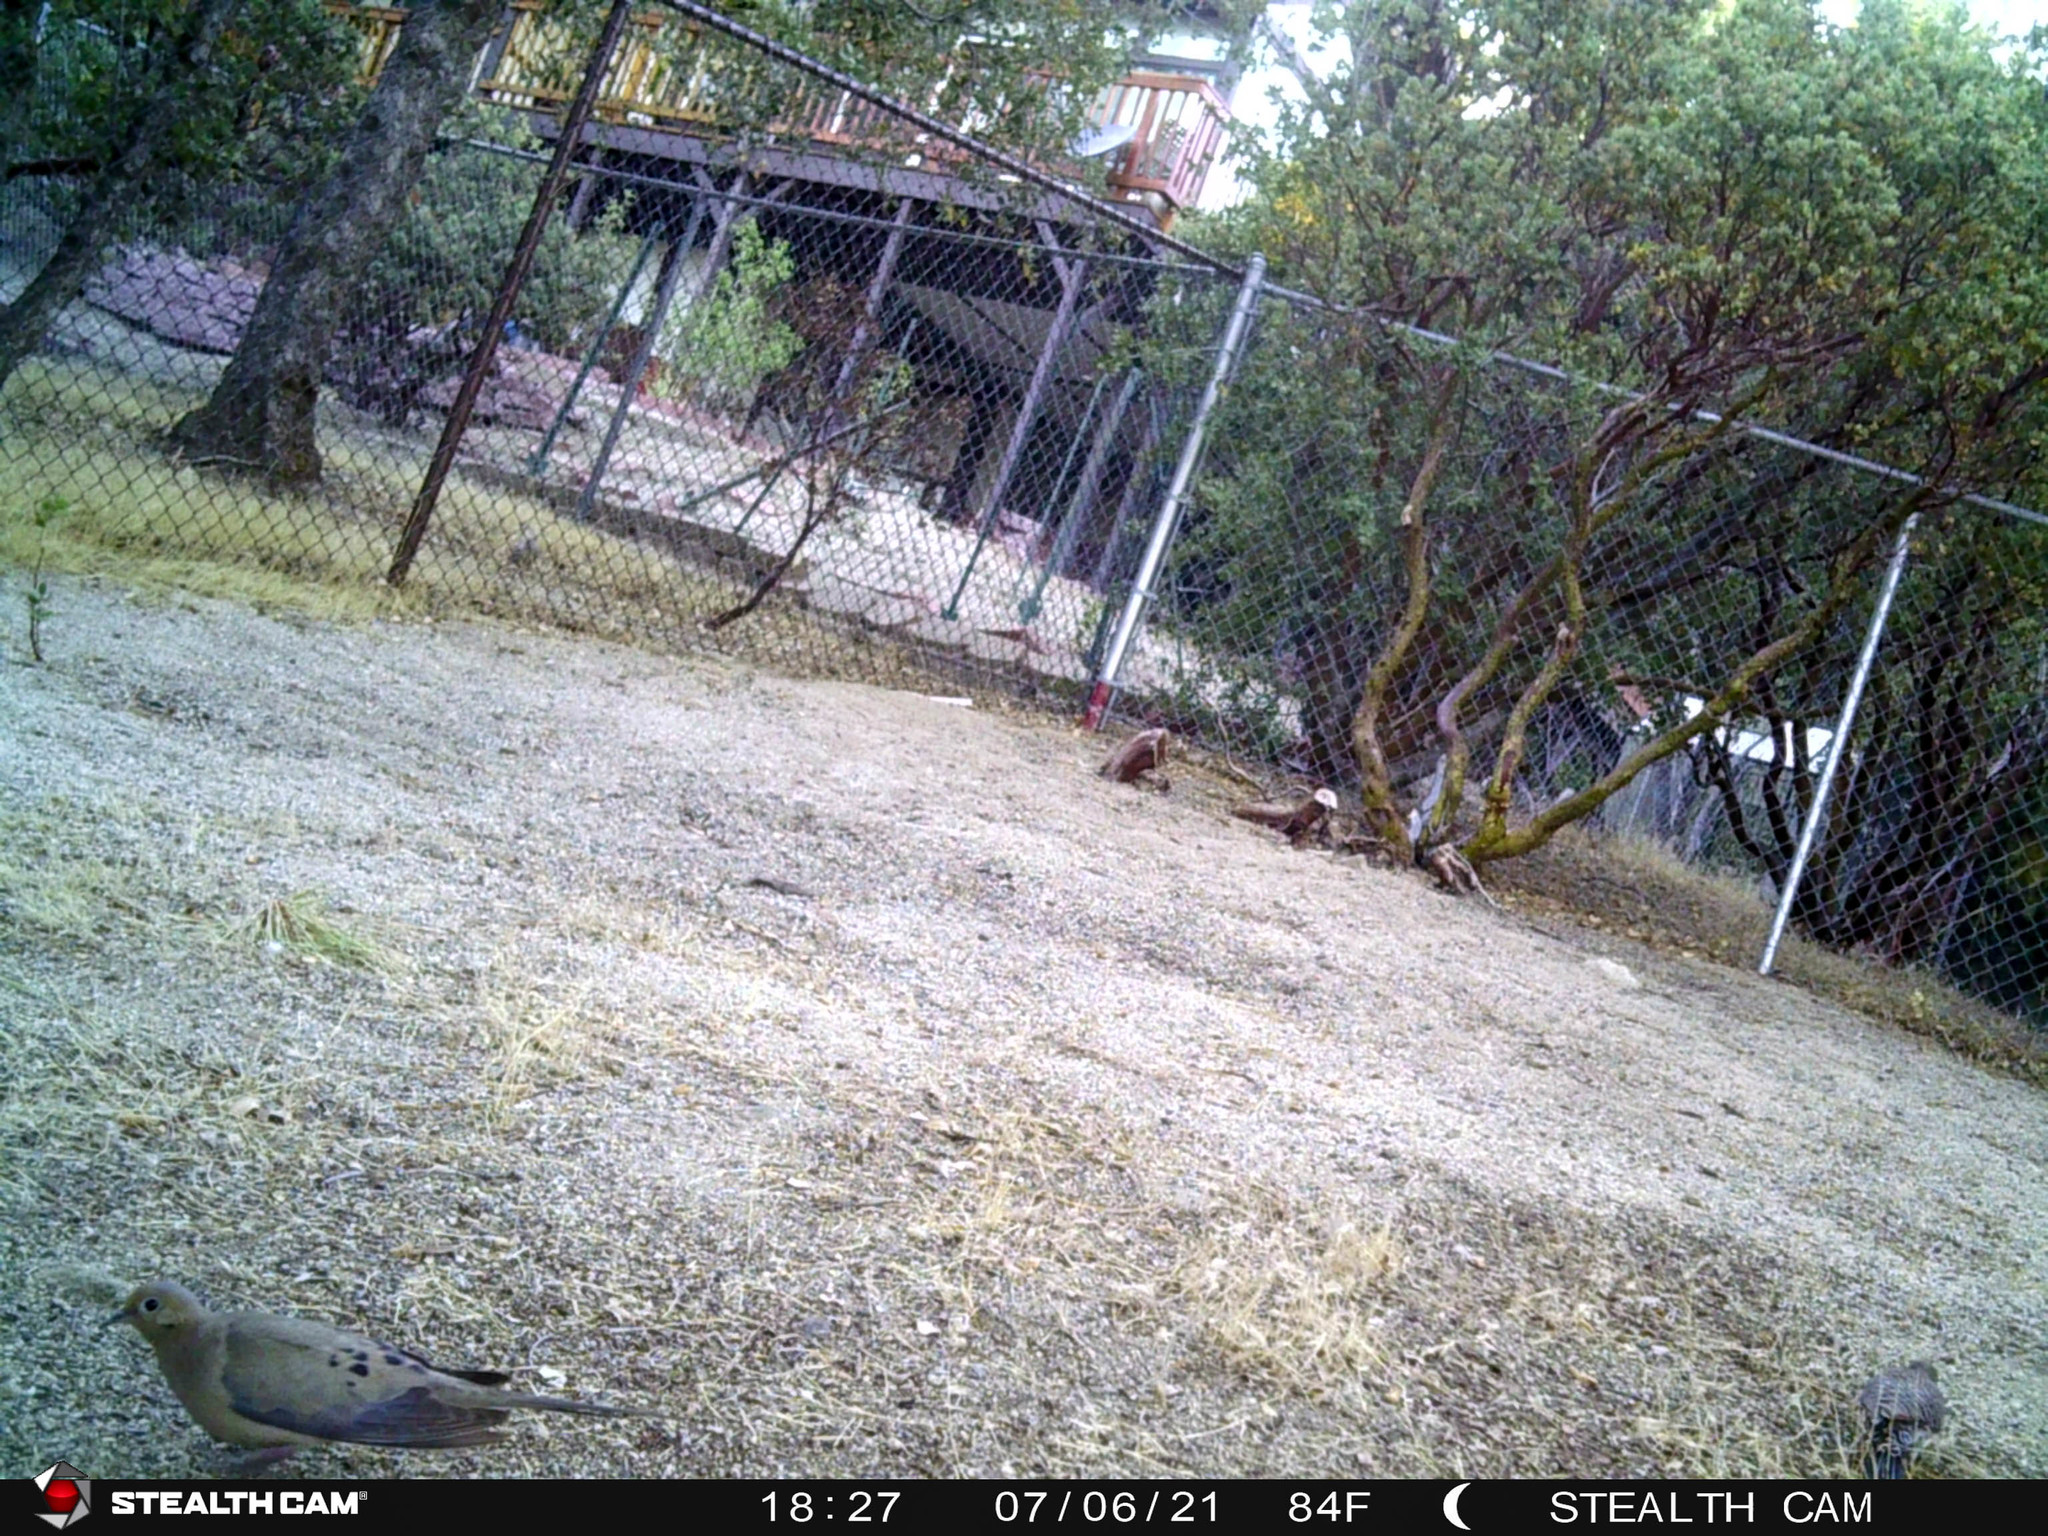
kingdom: Animalia
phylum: Chordata
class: Aves
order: Columbiformes
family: Columbidae
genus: Zenaida
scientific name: Zenaida macroura
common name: Mourning dove
